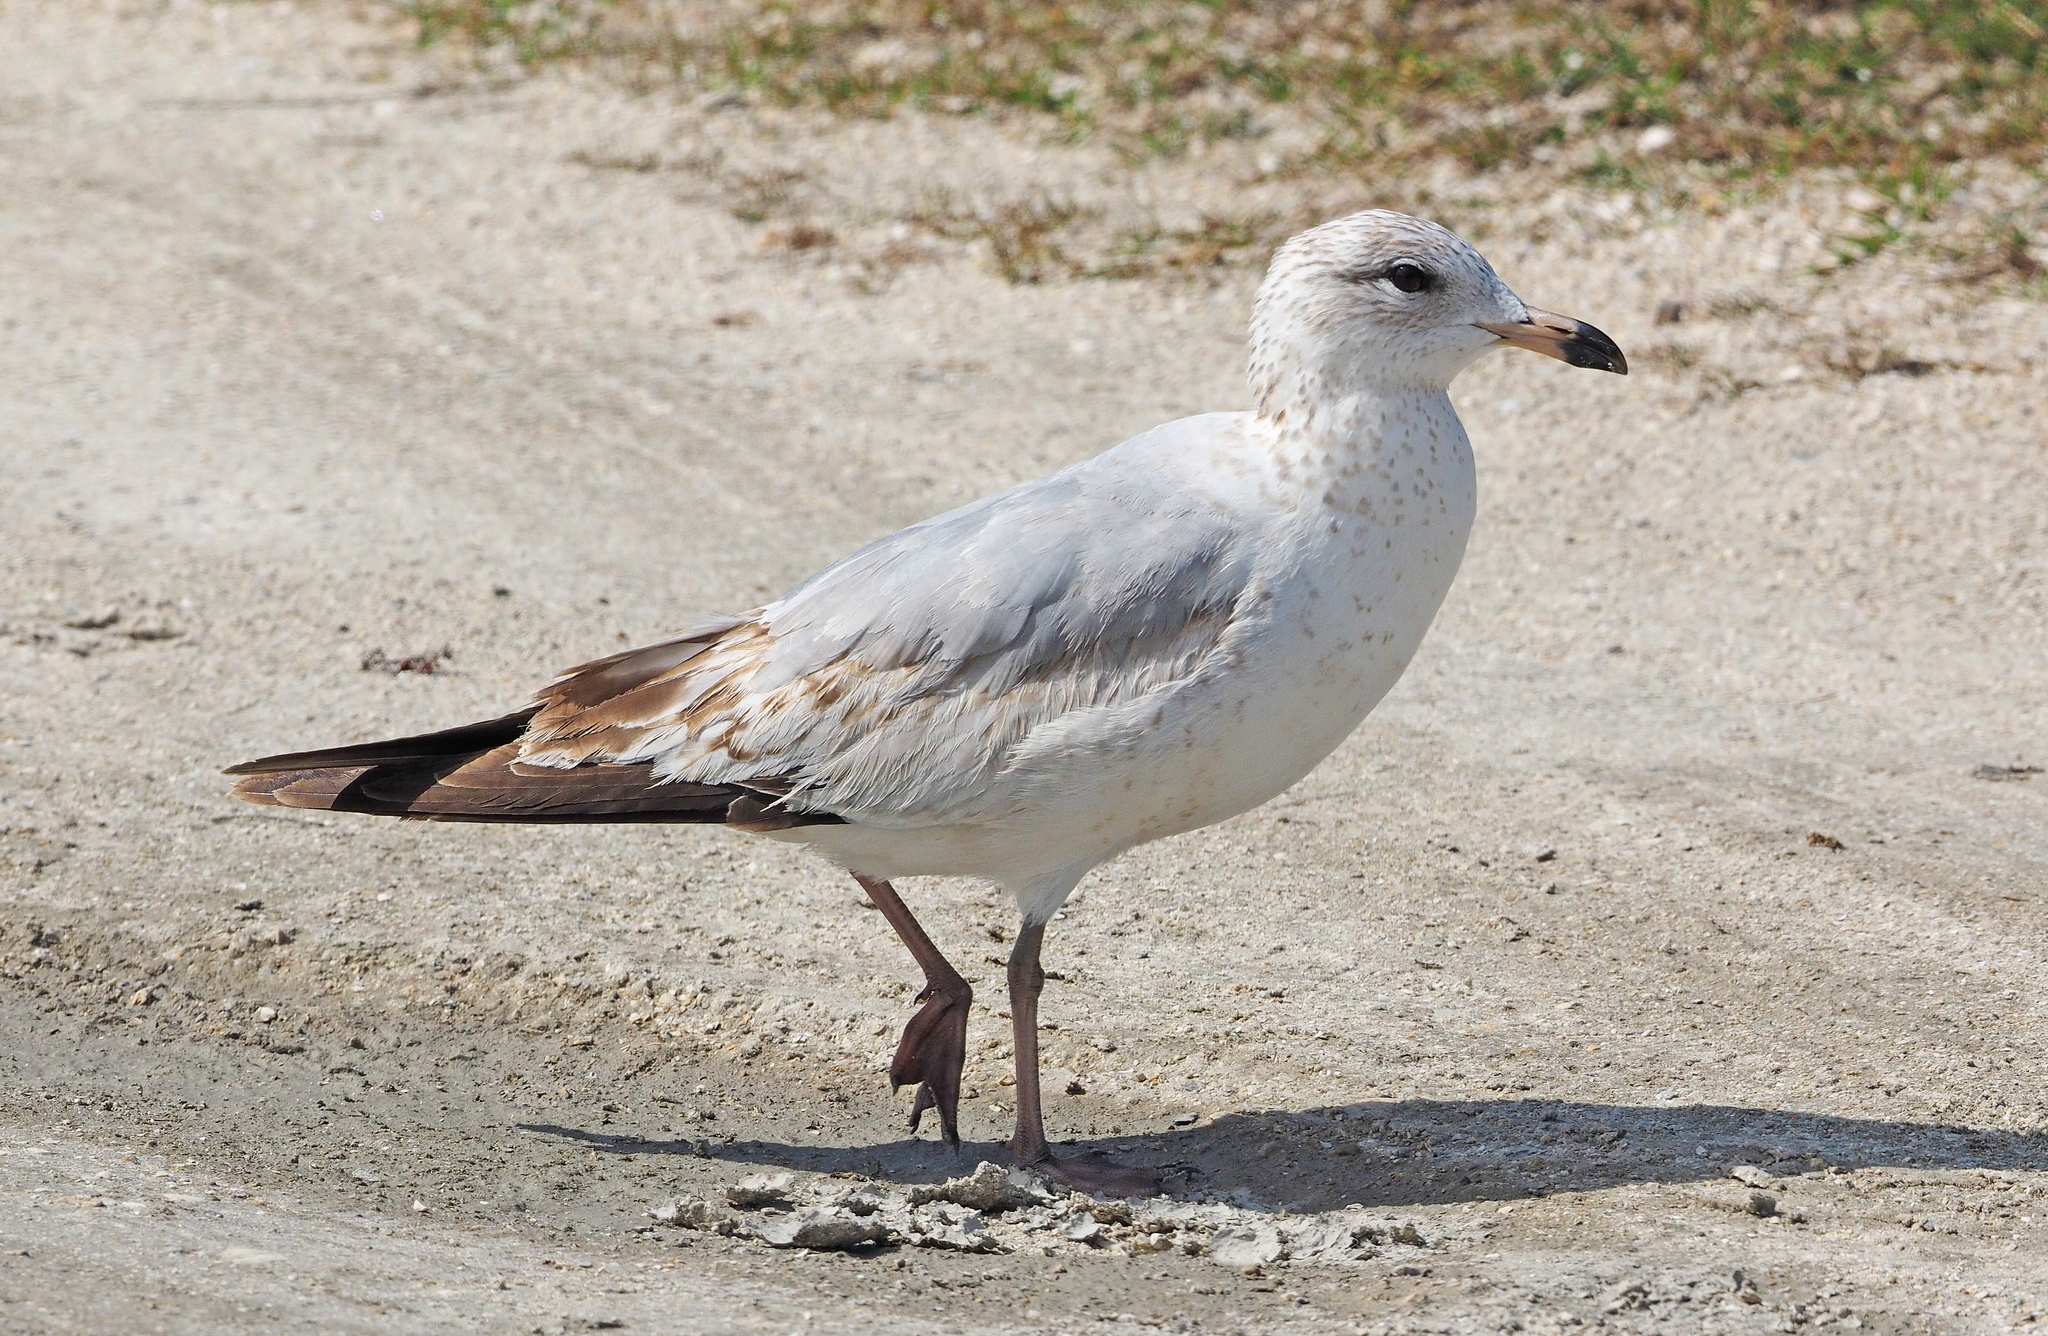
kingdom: Animalia
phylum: Chordata
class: Aves
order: Charadriiformes
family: Laridae
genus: Larus
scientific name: Larus delawarensis
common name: Ring-billed gull
